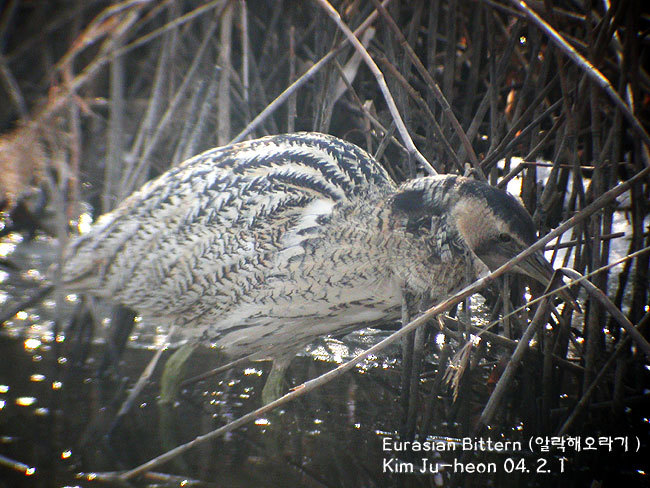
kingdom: Animalia
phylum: Chordata
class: Aves
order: Pelecaniformes
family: Ardeidae
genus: Botaurus
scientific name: Botaurus stellaris
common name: Eurasian bittern
